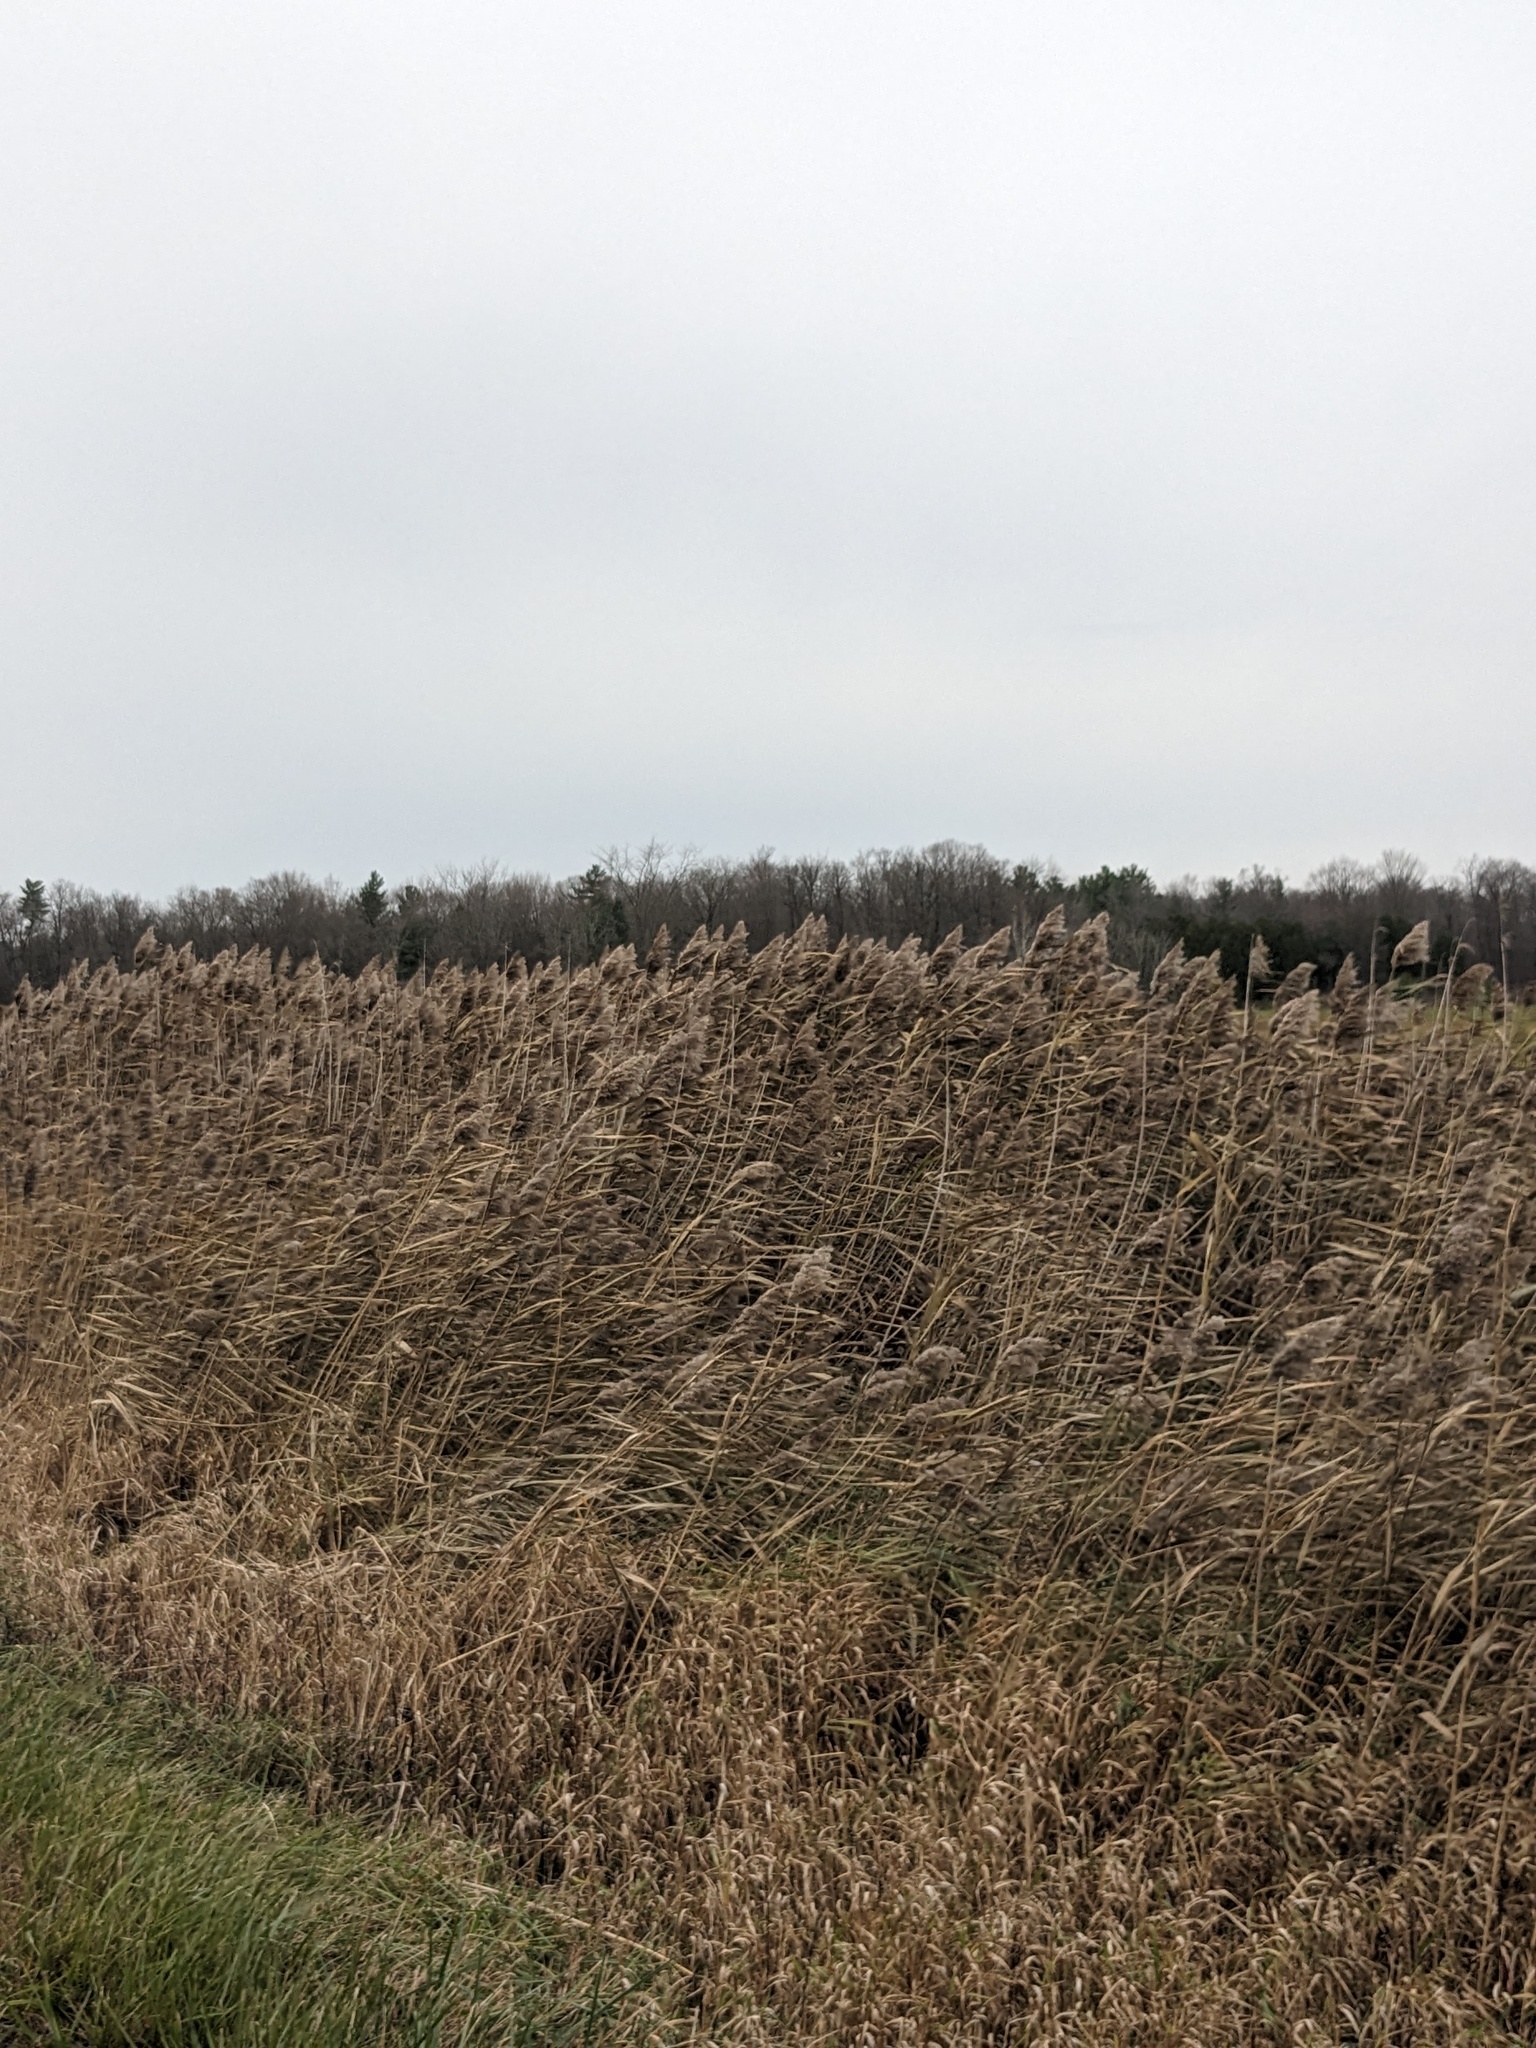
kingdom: Plantae
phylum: Tracheophyta
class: Liliopsida
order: Poales
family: Poaceae
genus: Phragmites
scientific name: Phragmites australis
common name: Common reed
